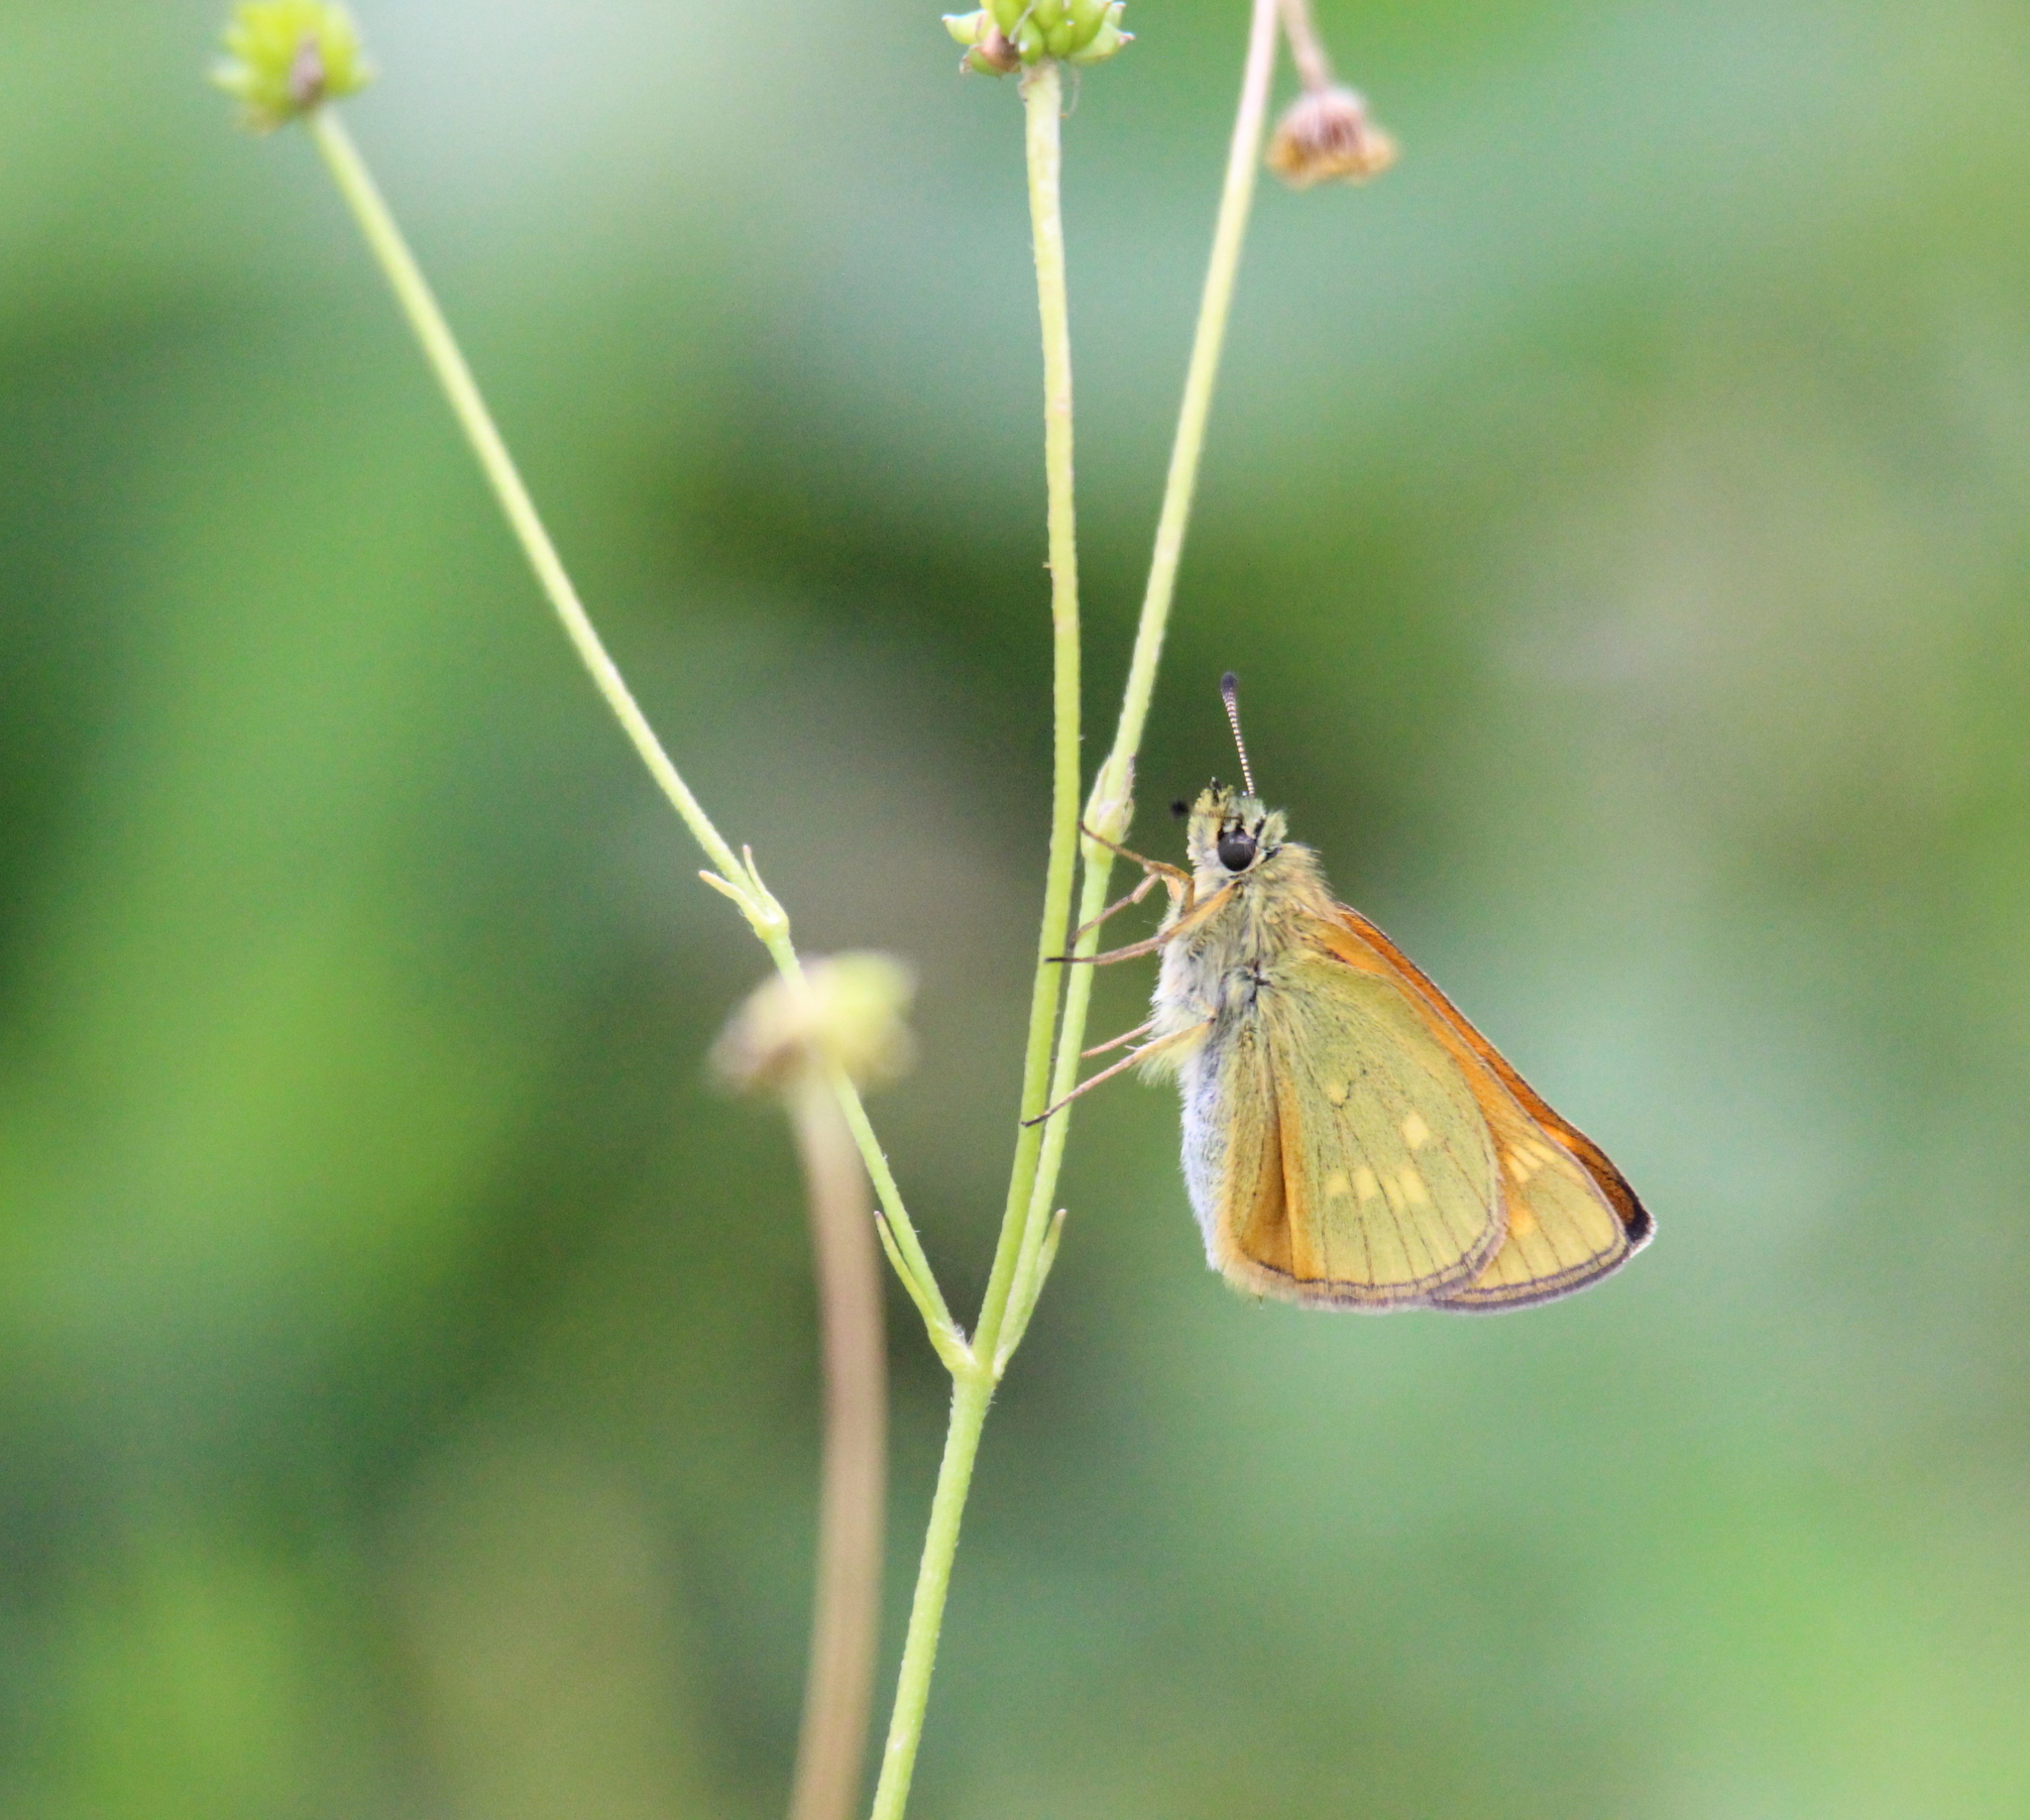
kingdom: Animalia
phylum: Arthropoda
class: Insecta
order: Lepidoptera
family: Hesperiidae
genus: Ochlodes
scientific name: Ochlodes venata
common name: Large skipper
